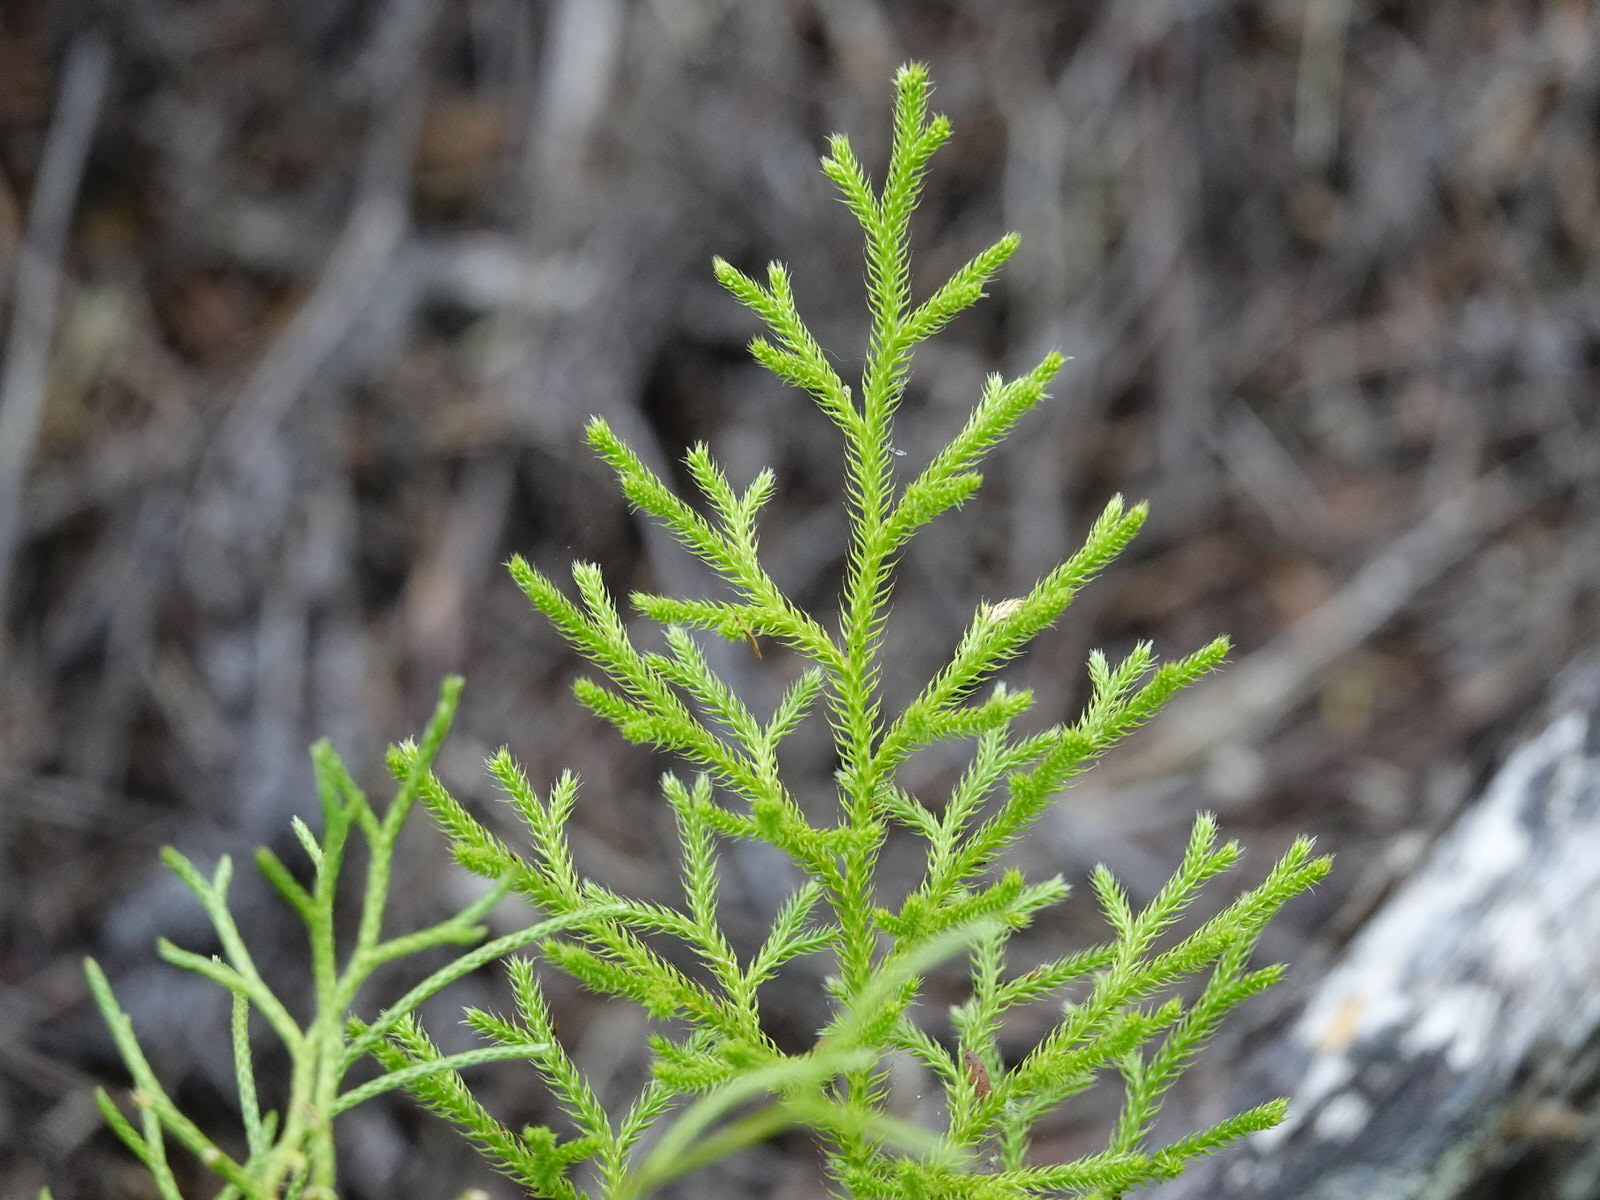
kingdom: Plantae
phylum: Tracheophyta
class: Lycopodiopsida
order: Lycopodiales
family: Lycopodiaceae
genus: Pseudolycopodium
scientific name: Pseudolycopodium densum
